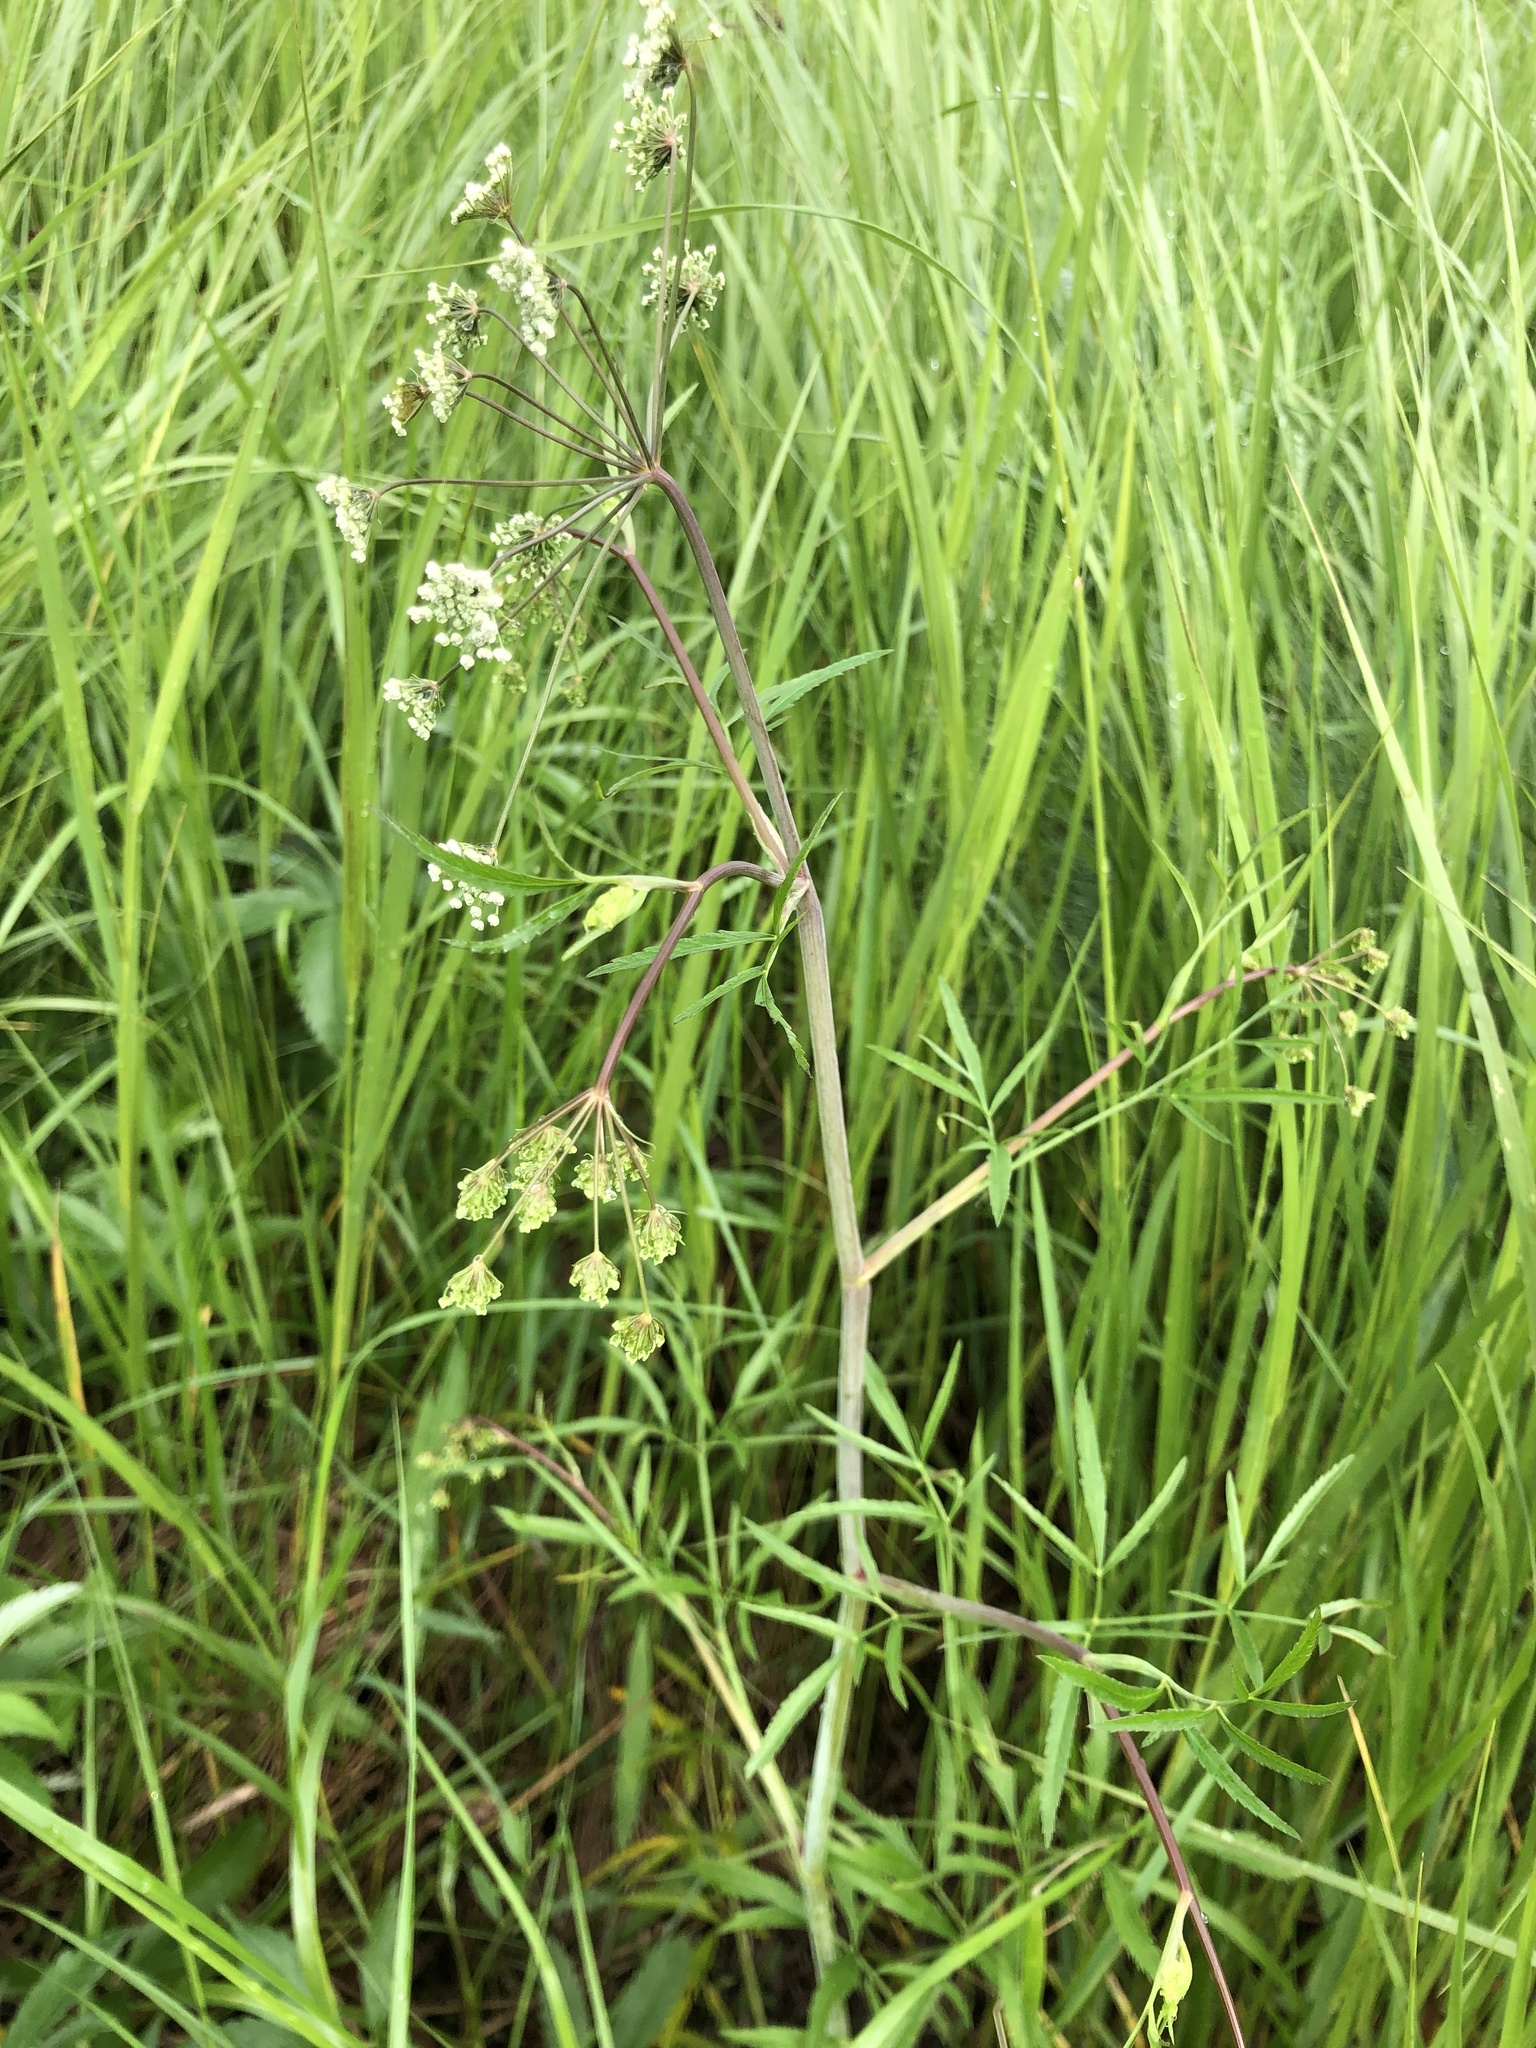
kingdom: Plantae
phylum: Tracheophyta
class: Magnoliopsida
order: Apiales
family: Apiaceae
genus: Cicuta
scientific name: Cicuta virosa
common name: Cowbane
